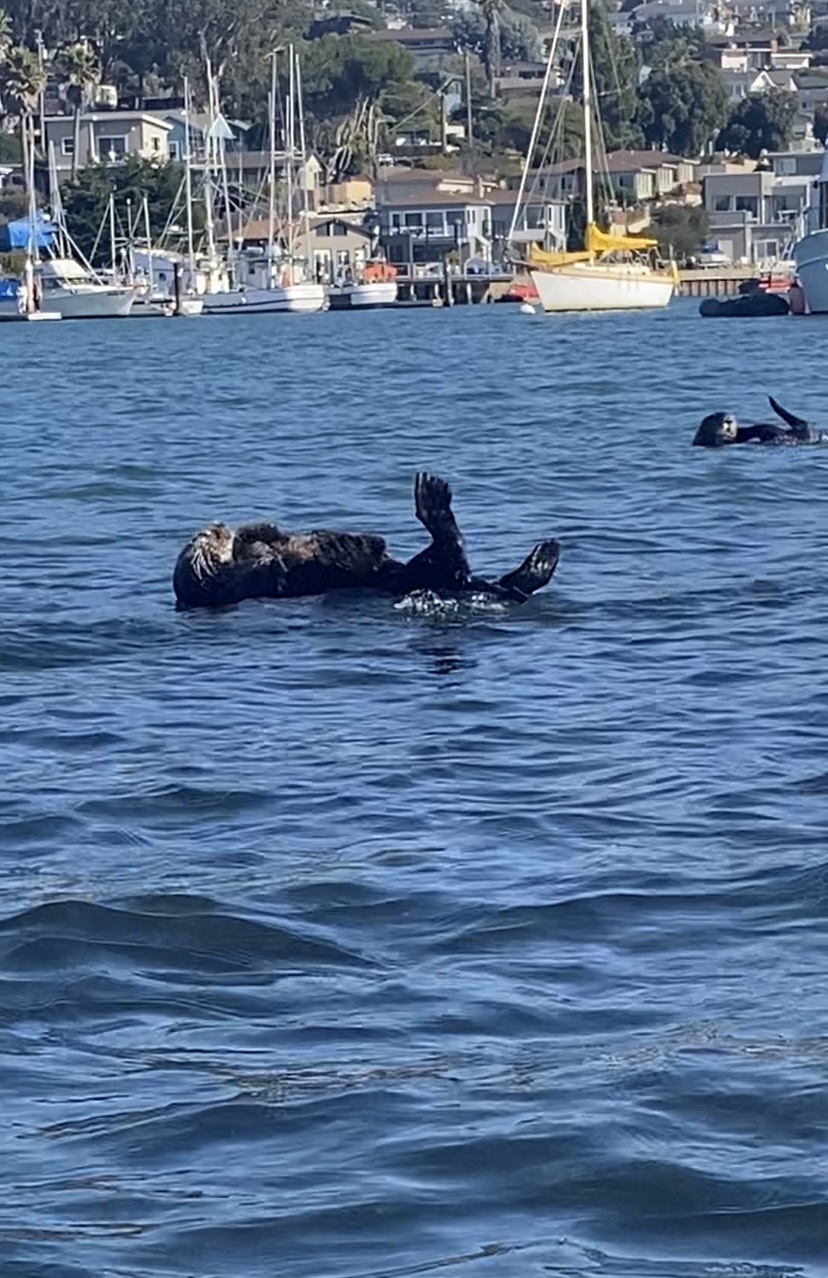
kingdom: Animalia
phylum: Chordata
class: Mammalia
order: Carnivora
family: Mustelidae
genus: Enhydra
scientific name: Enhydra lutris
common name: Sea otter
